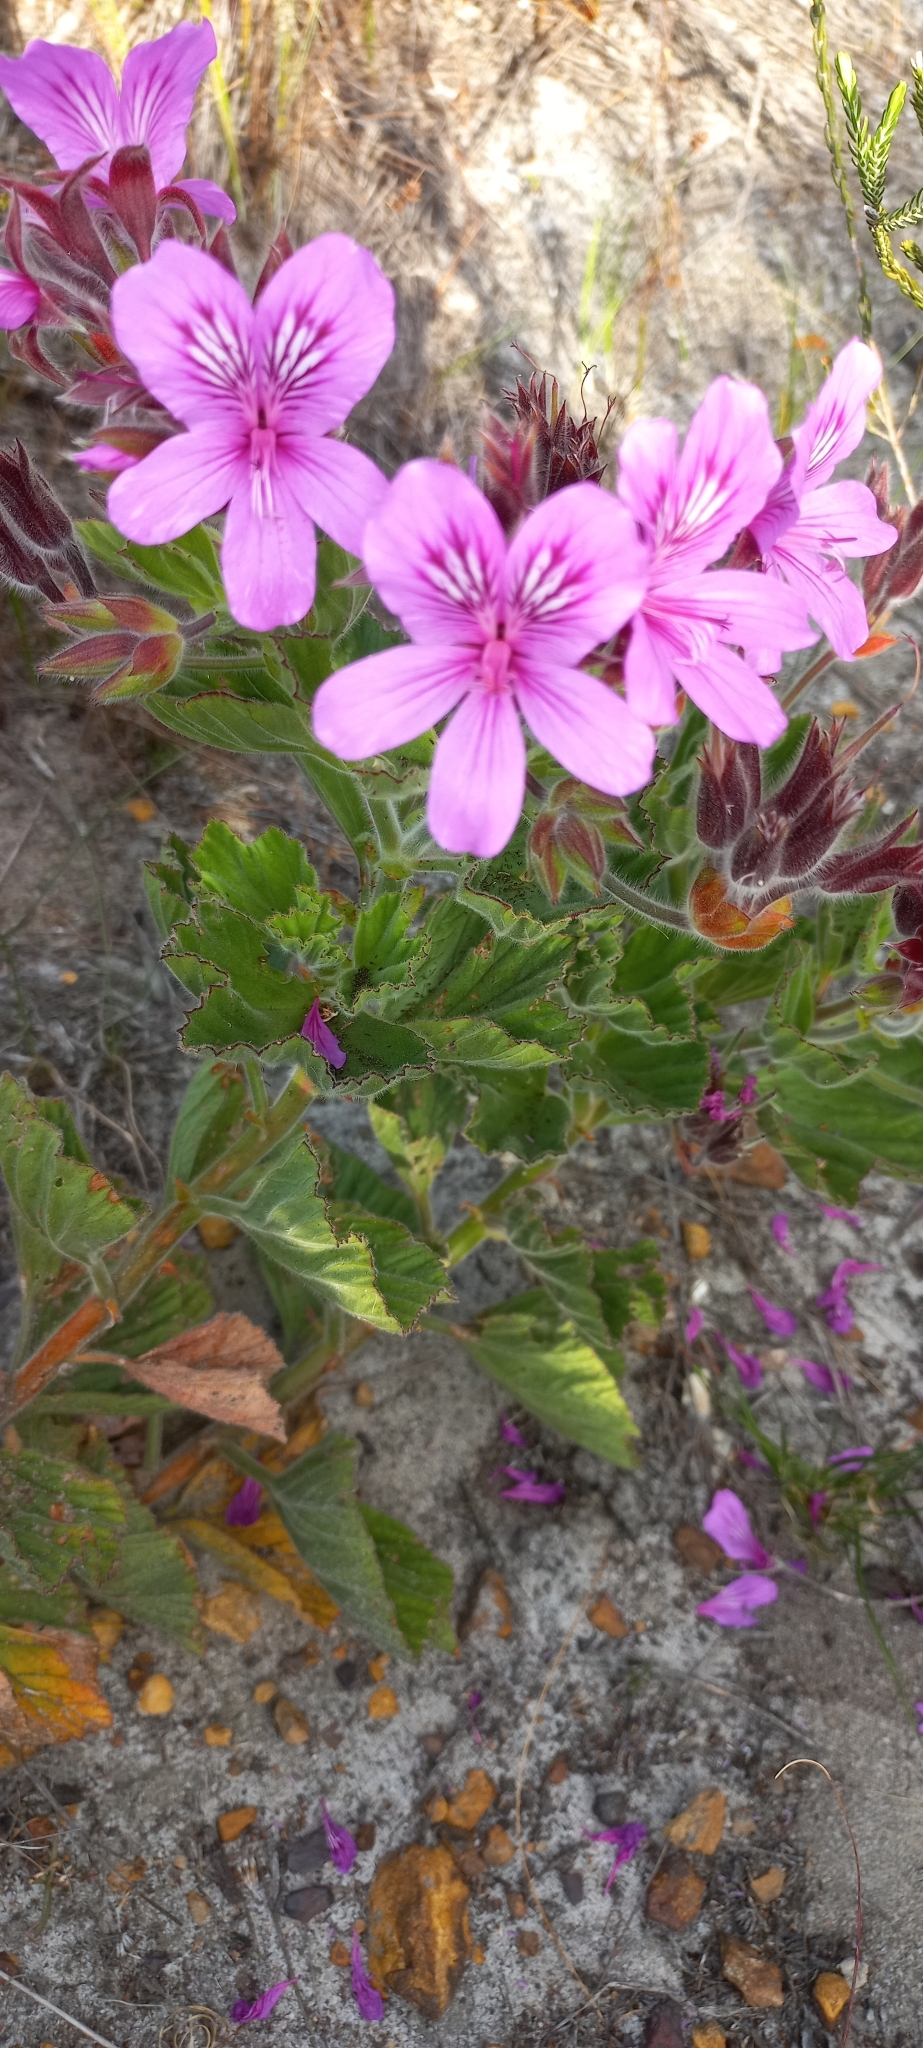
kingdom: Plantae
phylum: Tracheophyta
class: Magnoliopsida
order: Geraniales
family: Geraniaceae
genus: Pelargonium
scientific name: Pelargonium cucullatum
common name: Tree pelargonium
